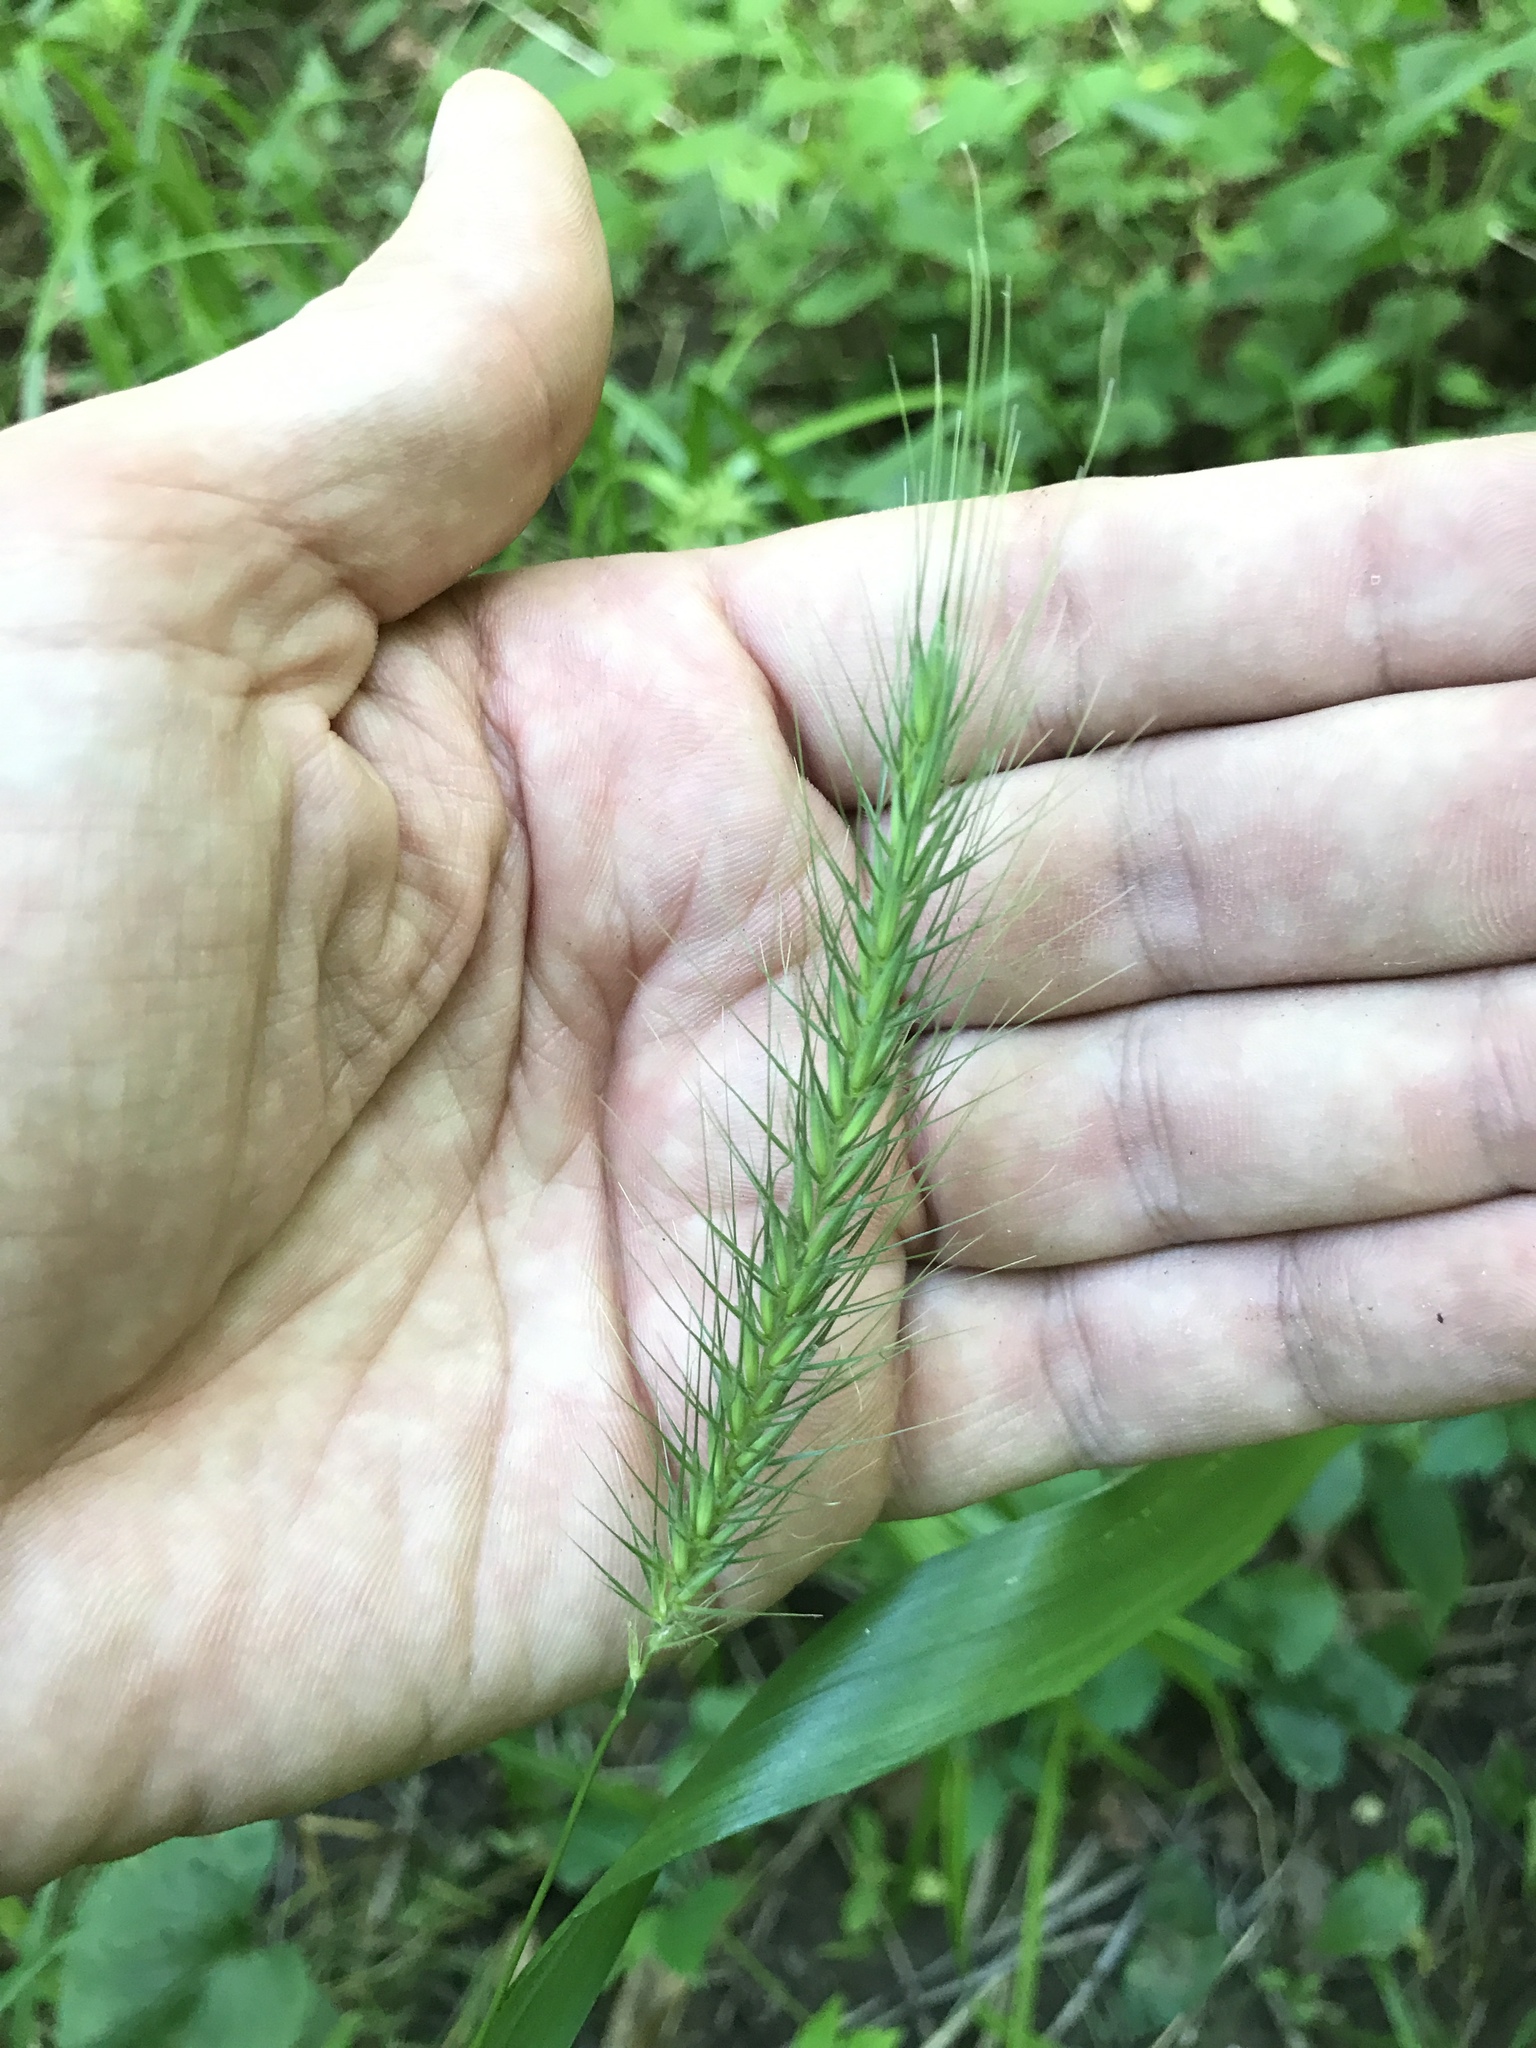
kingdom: Plantae
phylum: Tracheophyta
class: Liliopsida
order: Poales
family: Poaceae
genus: Elymus
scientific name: Elymus villosus
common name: Downy wild rye
